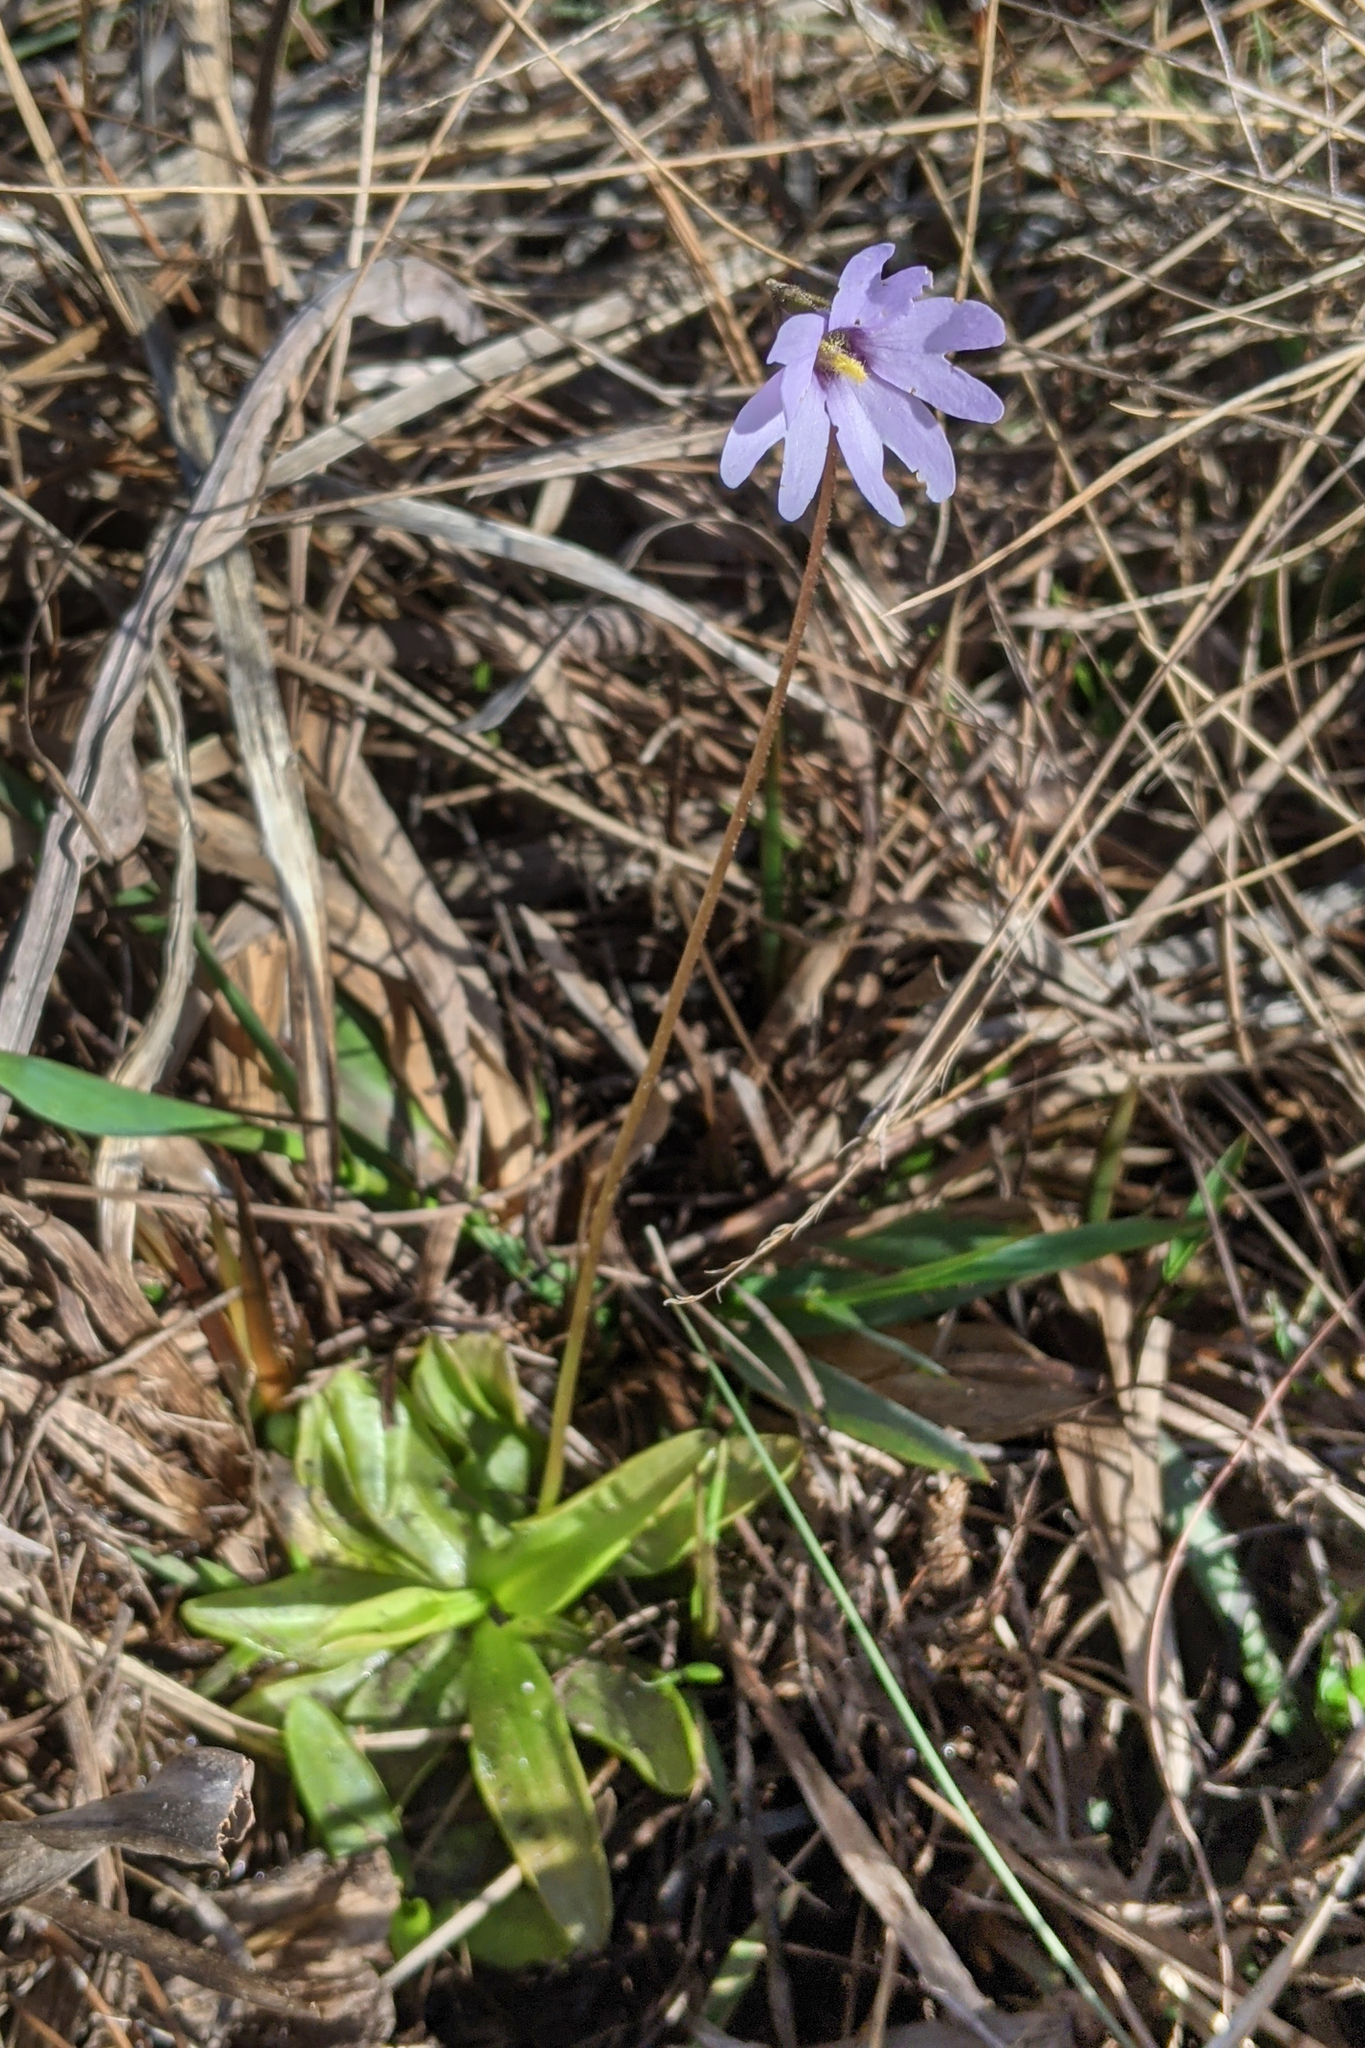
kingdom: Plantae
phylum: Tracheophyta
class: Magnoliopsida
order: Lamiales
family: Lentibulariaceae
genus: Pinguicula
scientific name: Pinguicula planifolia
